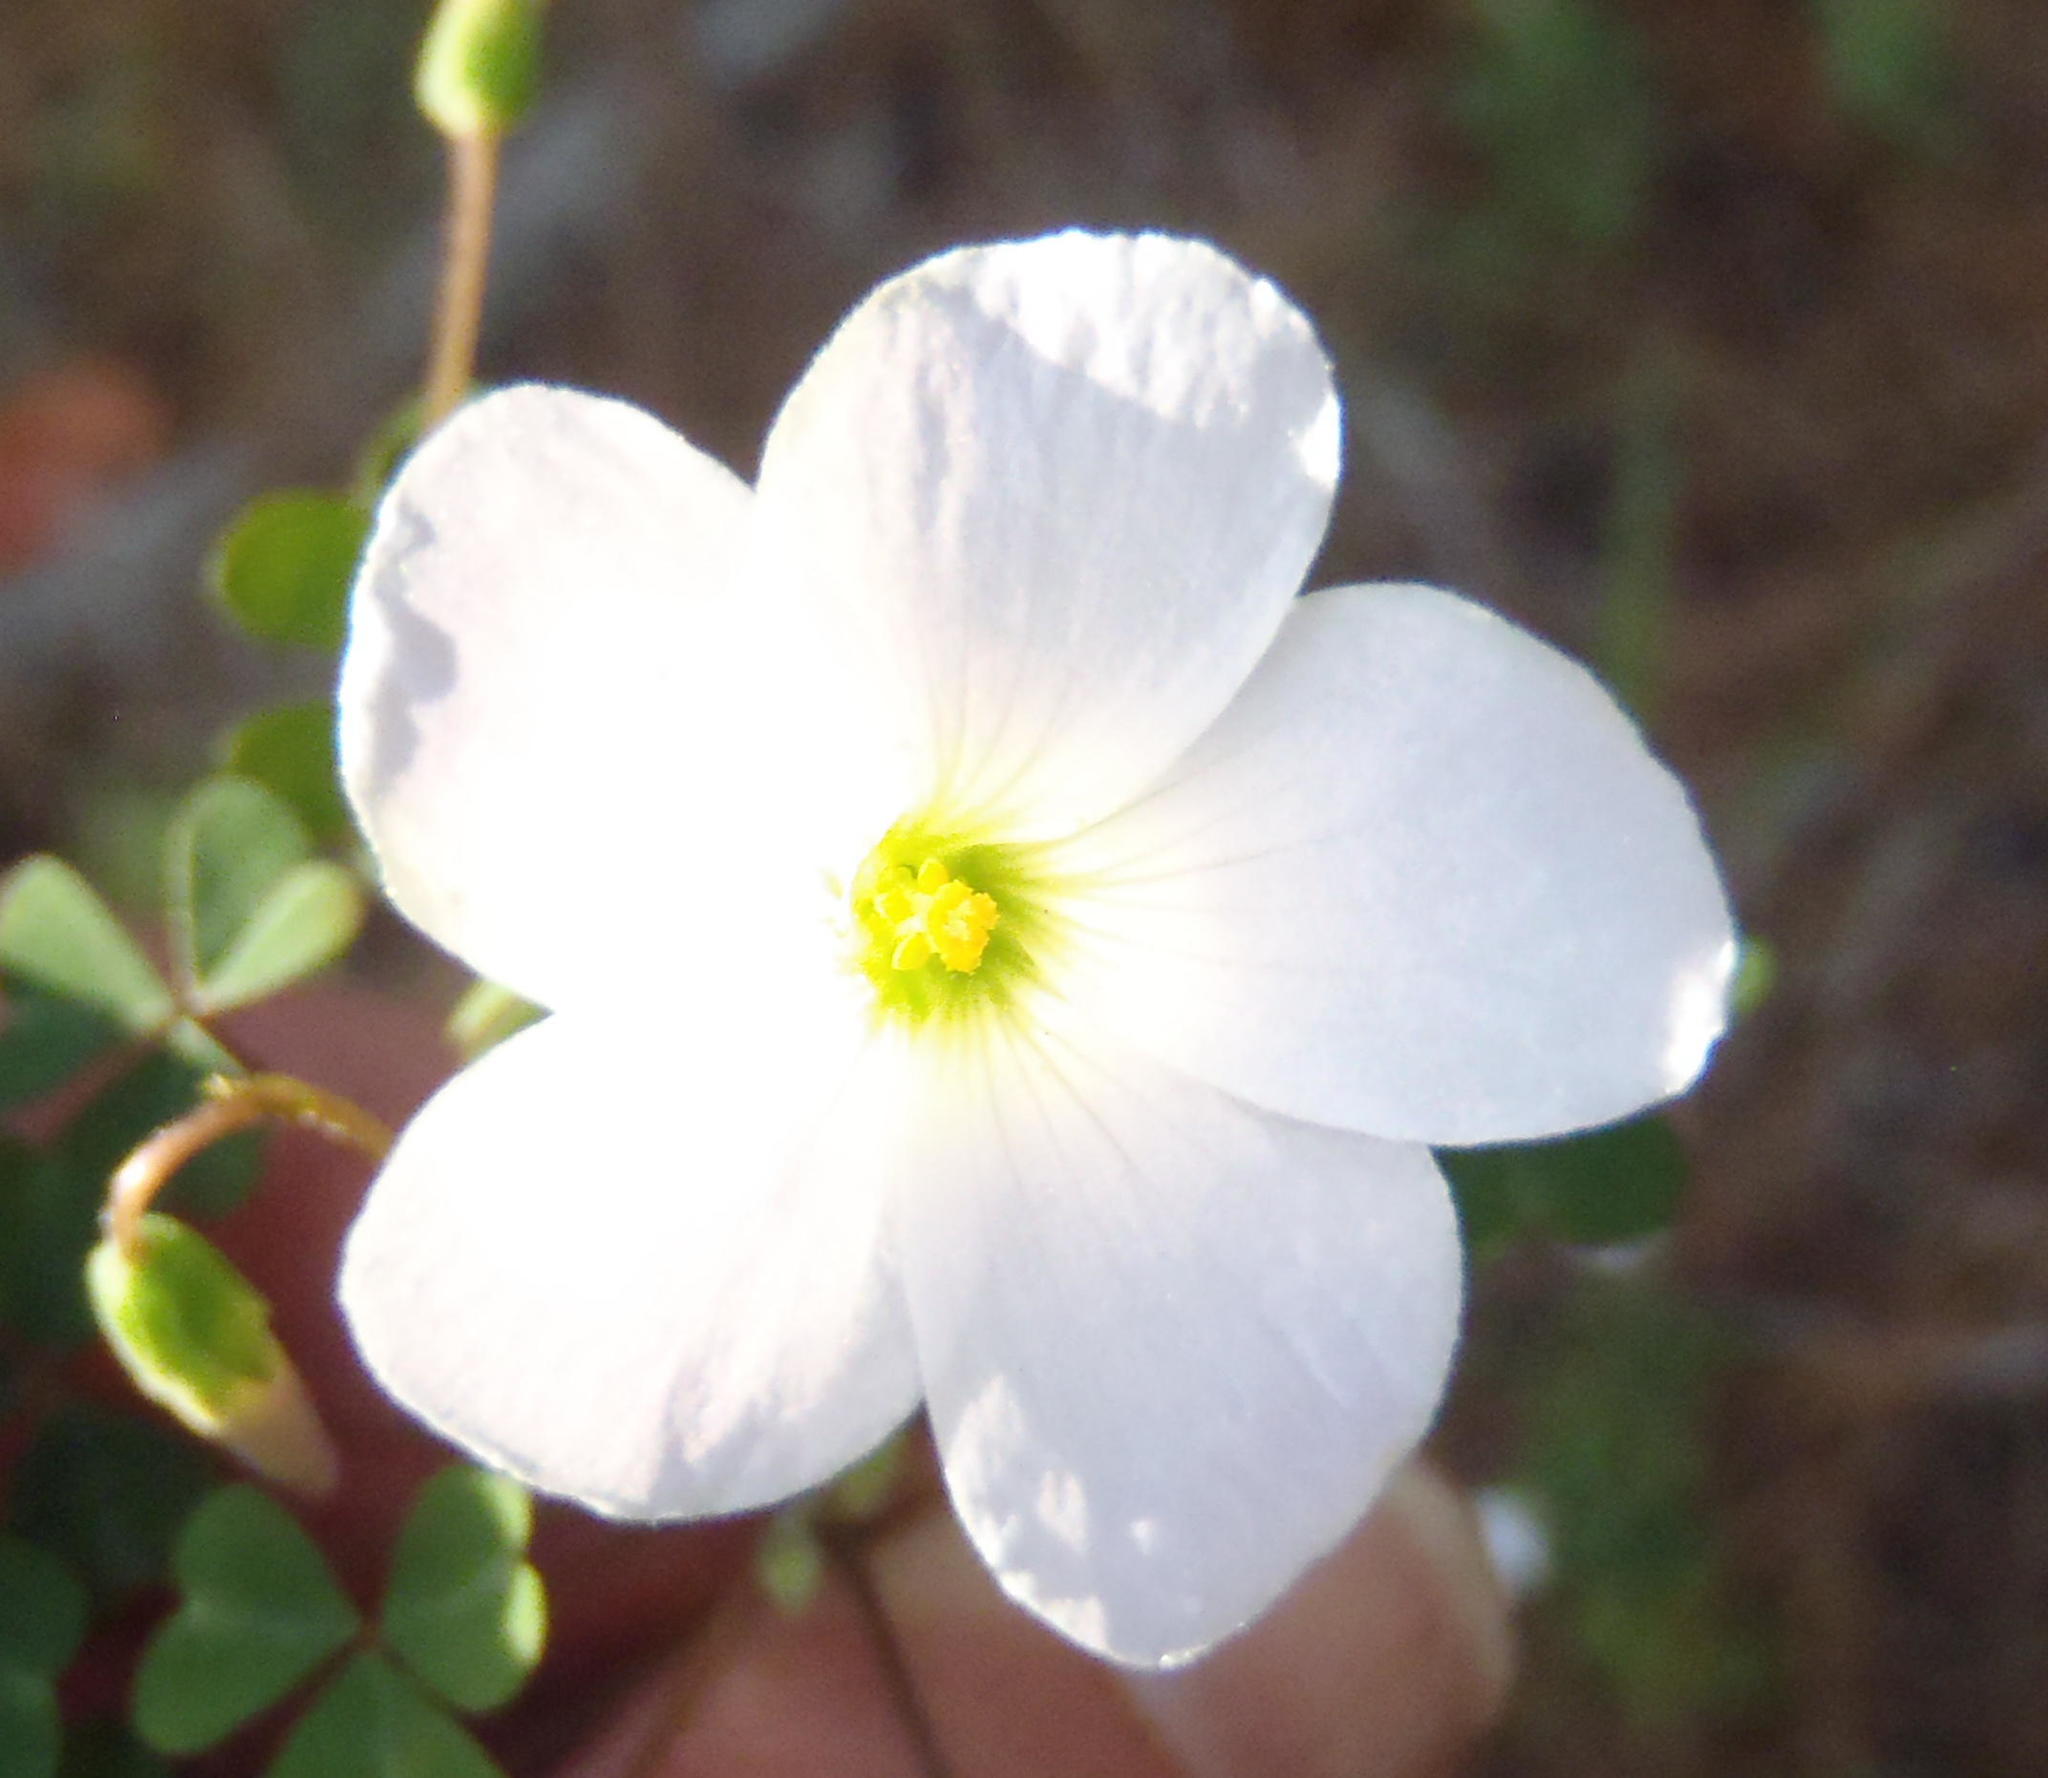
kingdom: Plantae
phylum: Tracheophyta
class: Magnoliopsida
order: Oxalidales
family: Oxalidaceae
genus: Oxalis
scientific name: Oxalis incarnata
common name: Pale pink-sorrel
